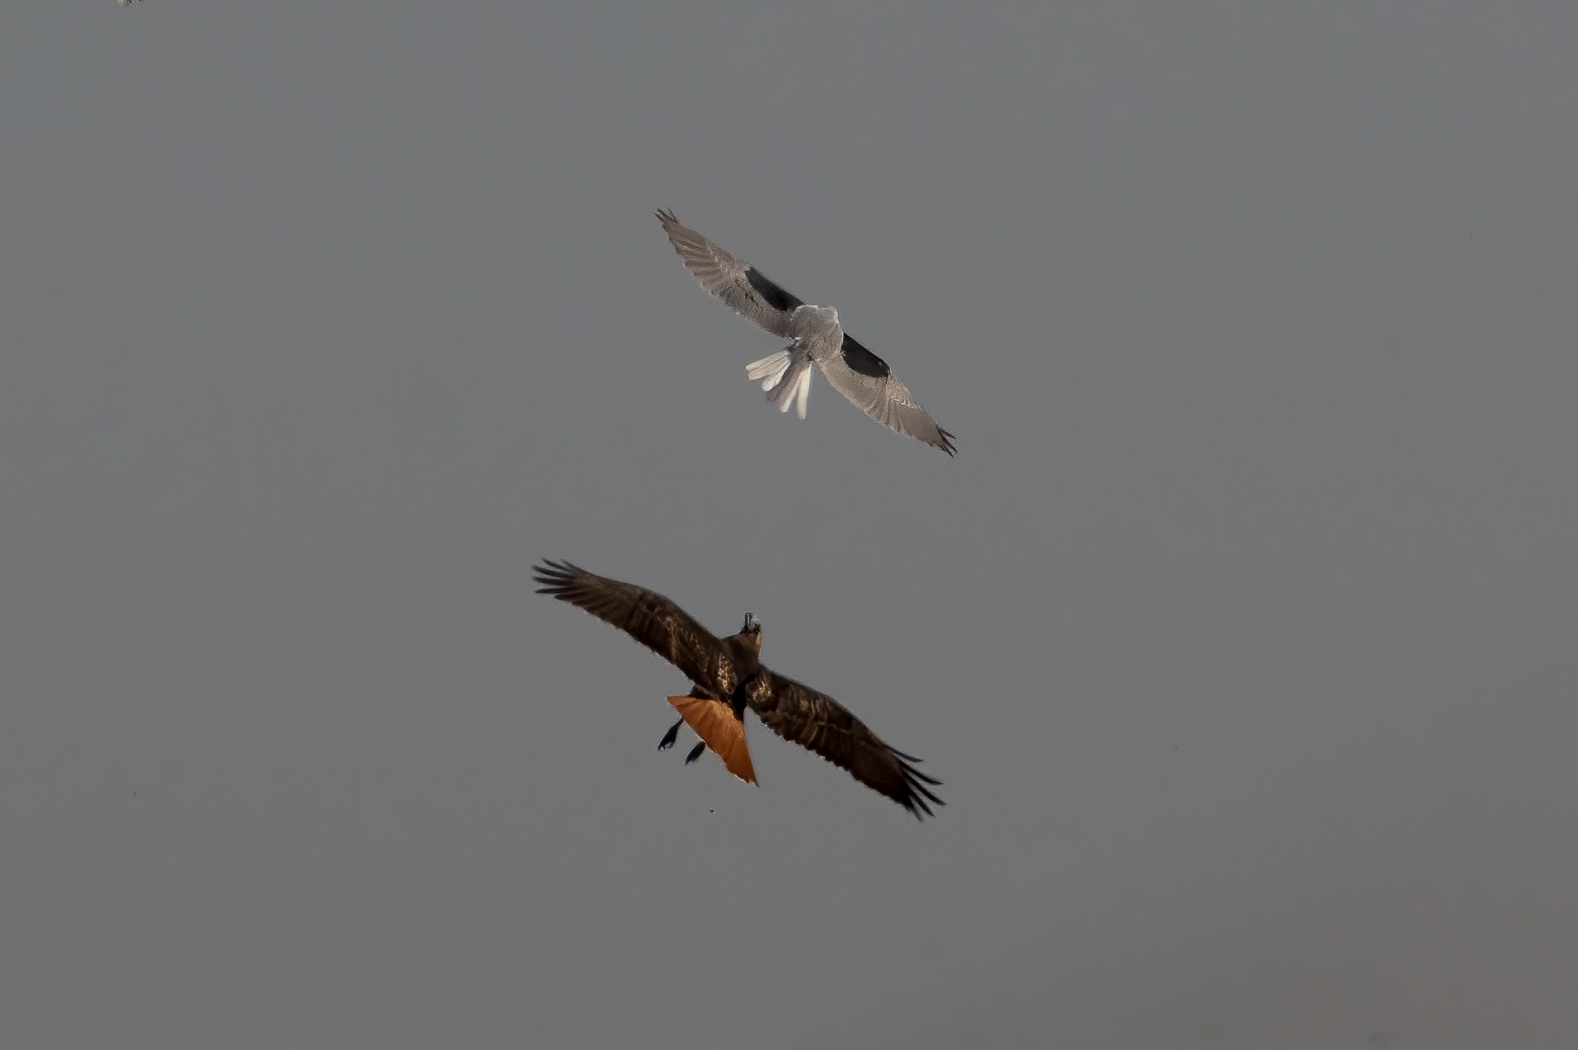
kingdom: Animalia
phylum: Chordata
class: Aves
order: Accipitriformes
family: Accipitridae
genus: Buteo
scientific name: Buteo jamaicensis
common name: Red-tailed hawk
